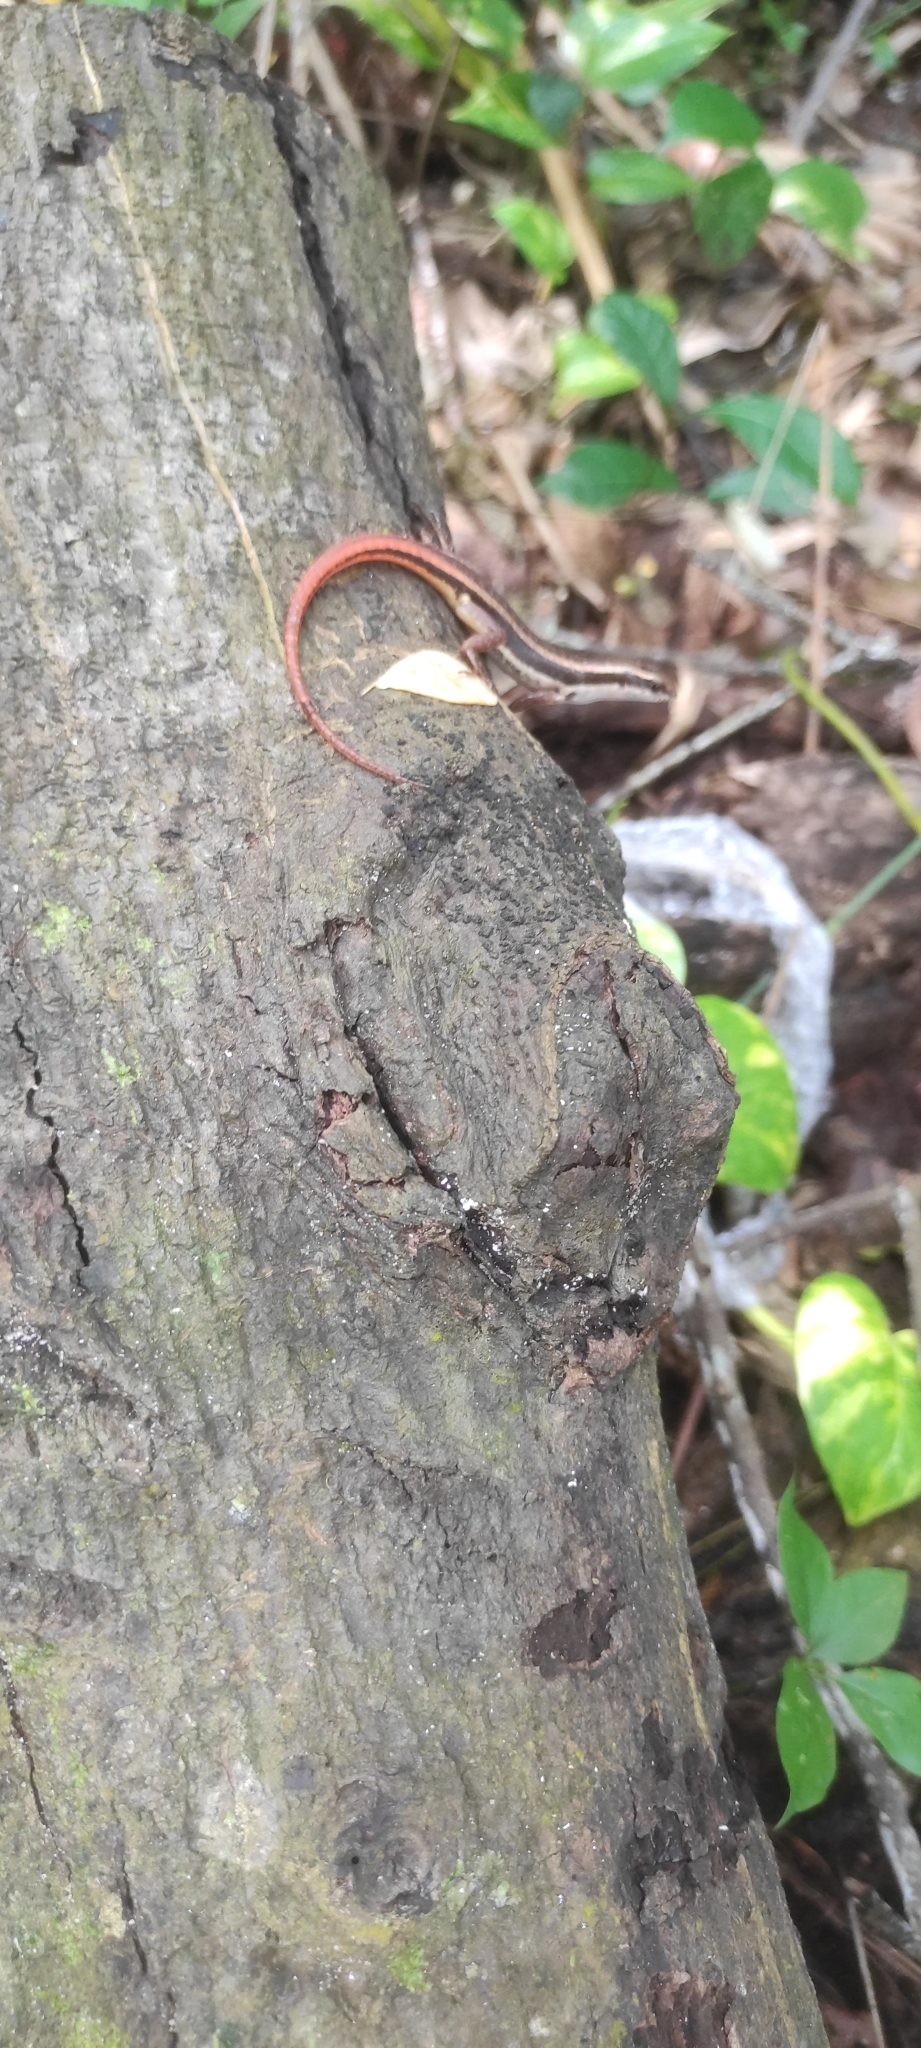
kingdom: Animalia
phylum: Chordata
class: Squamata
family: Scincidae
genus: Sphenomorphus
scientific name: Sphenomorphus dussumieri
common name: Dussumier's forest skink
